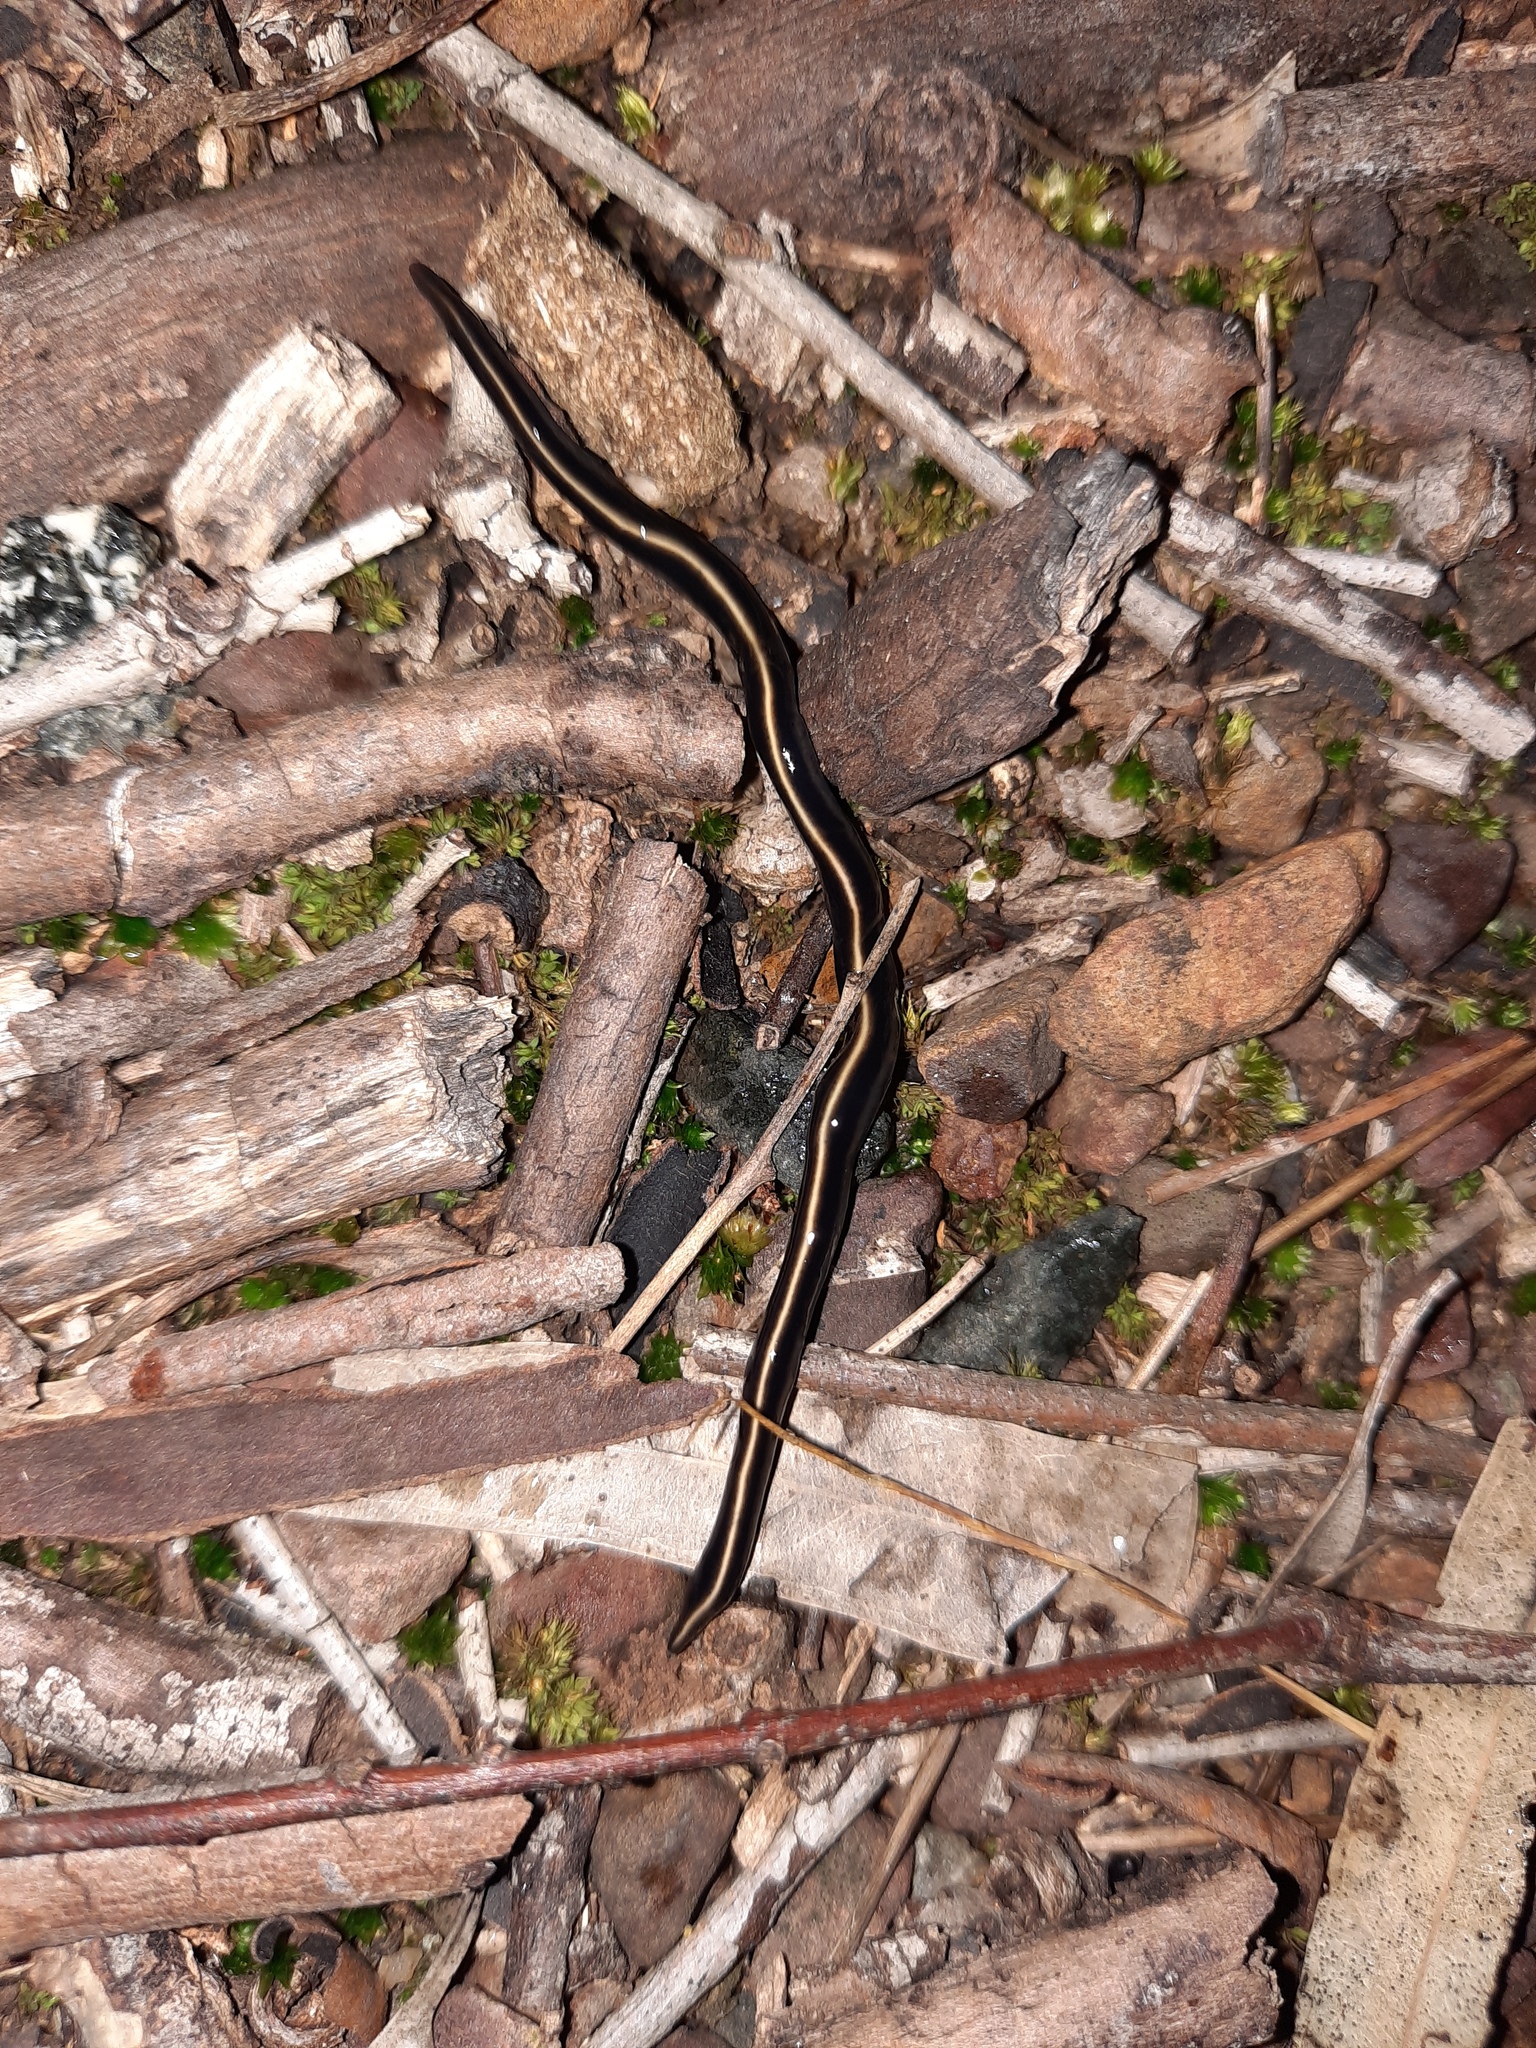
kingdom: Animalia
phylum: Platyhelminthes
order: Tricladida
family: Geoplanidae
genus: Caenoplana
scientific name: Caenoplana coerulea
